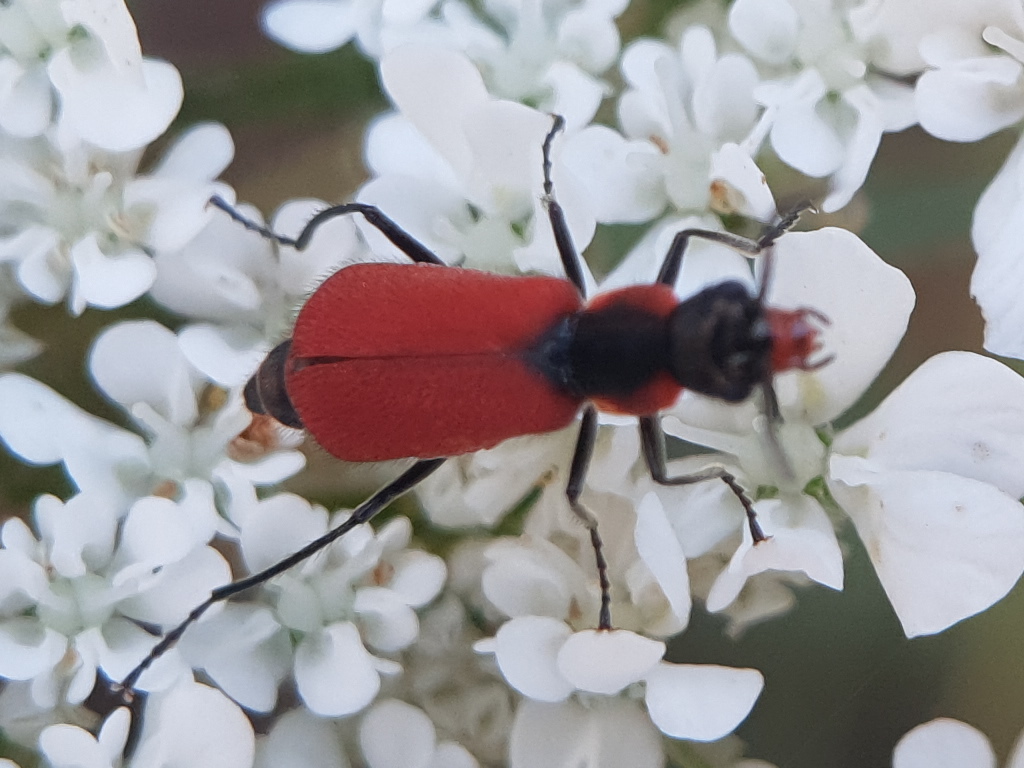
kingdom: Animalia
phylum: Arthropoda
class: Insecta
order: Coleoptera
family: Melyridae
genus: Malachius
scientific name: Malachius coccineus
